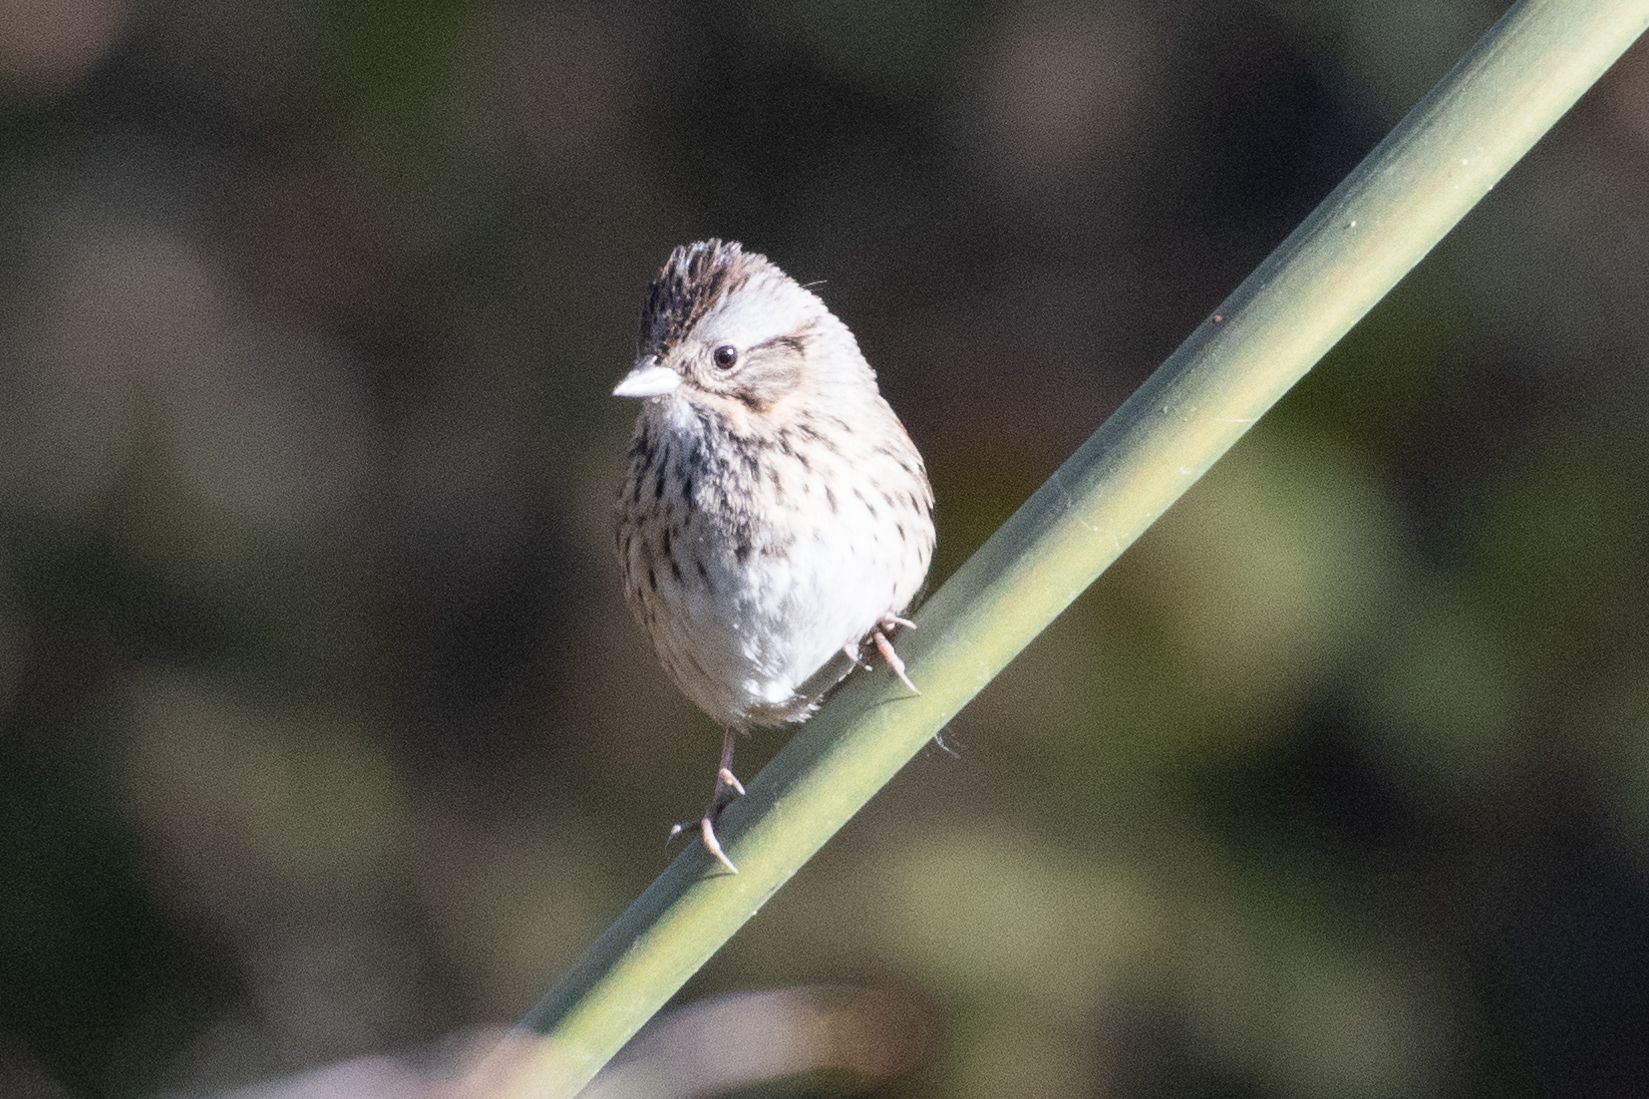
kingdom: Animalia
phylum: Chordata
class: Aves
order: Passeriformes
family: Passerellidae
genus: Melospiza
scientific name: Melospiza lincolnii
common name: Lincoln's sparrow
